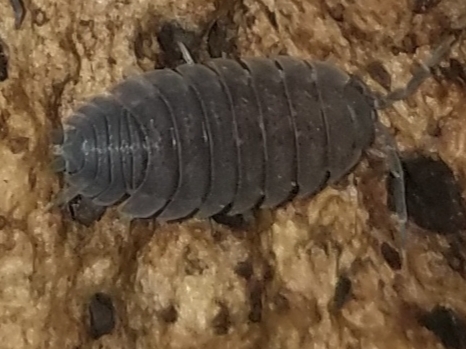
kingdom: Animalia
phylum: Arthropoda
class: Malacostraca
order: Isopoda
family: Porcellionidae
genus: Porcellio
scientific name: Porcellio scaber
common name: Common rough woodlouse
